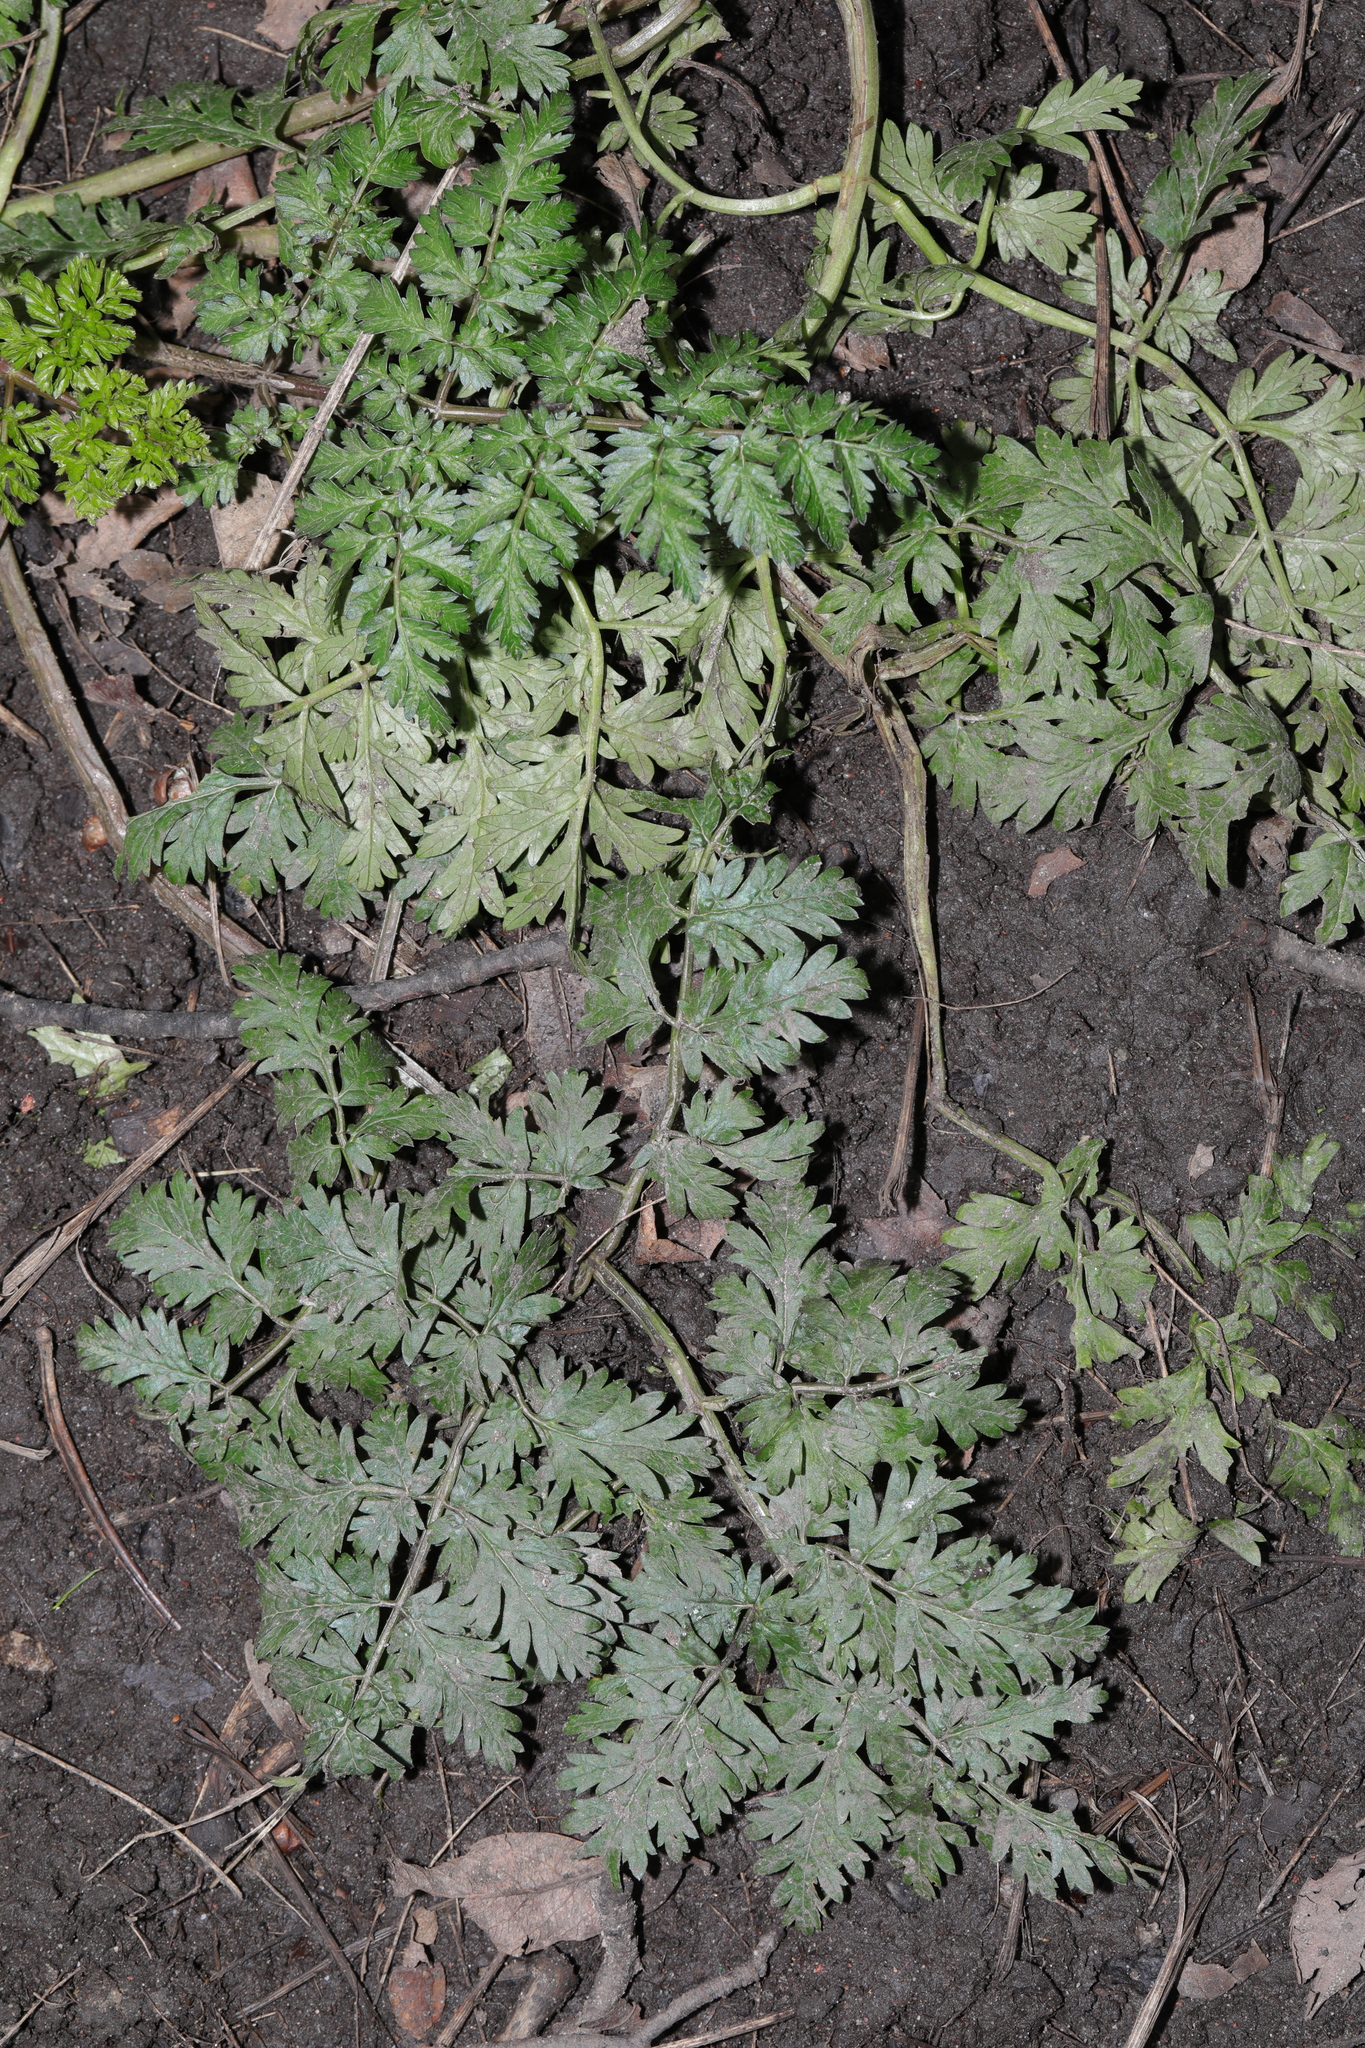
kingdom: Plantae
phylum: Tracheophyta
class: Magnoliopsida
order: Apiales
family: Apiaceae
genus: Anthriscus
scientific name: Anthriscus sylvestris
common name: Cow parsley
